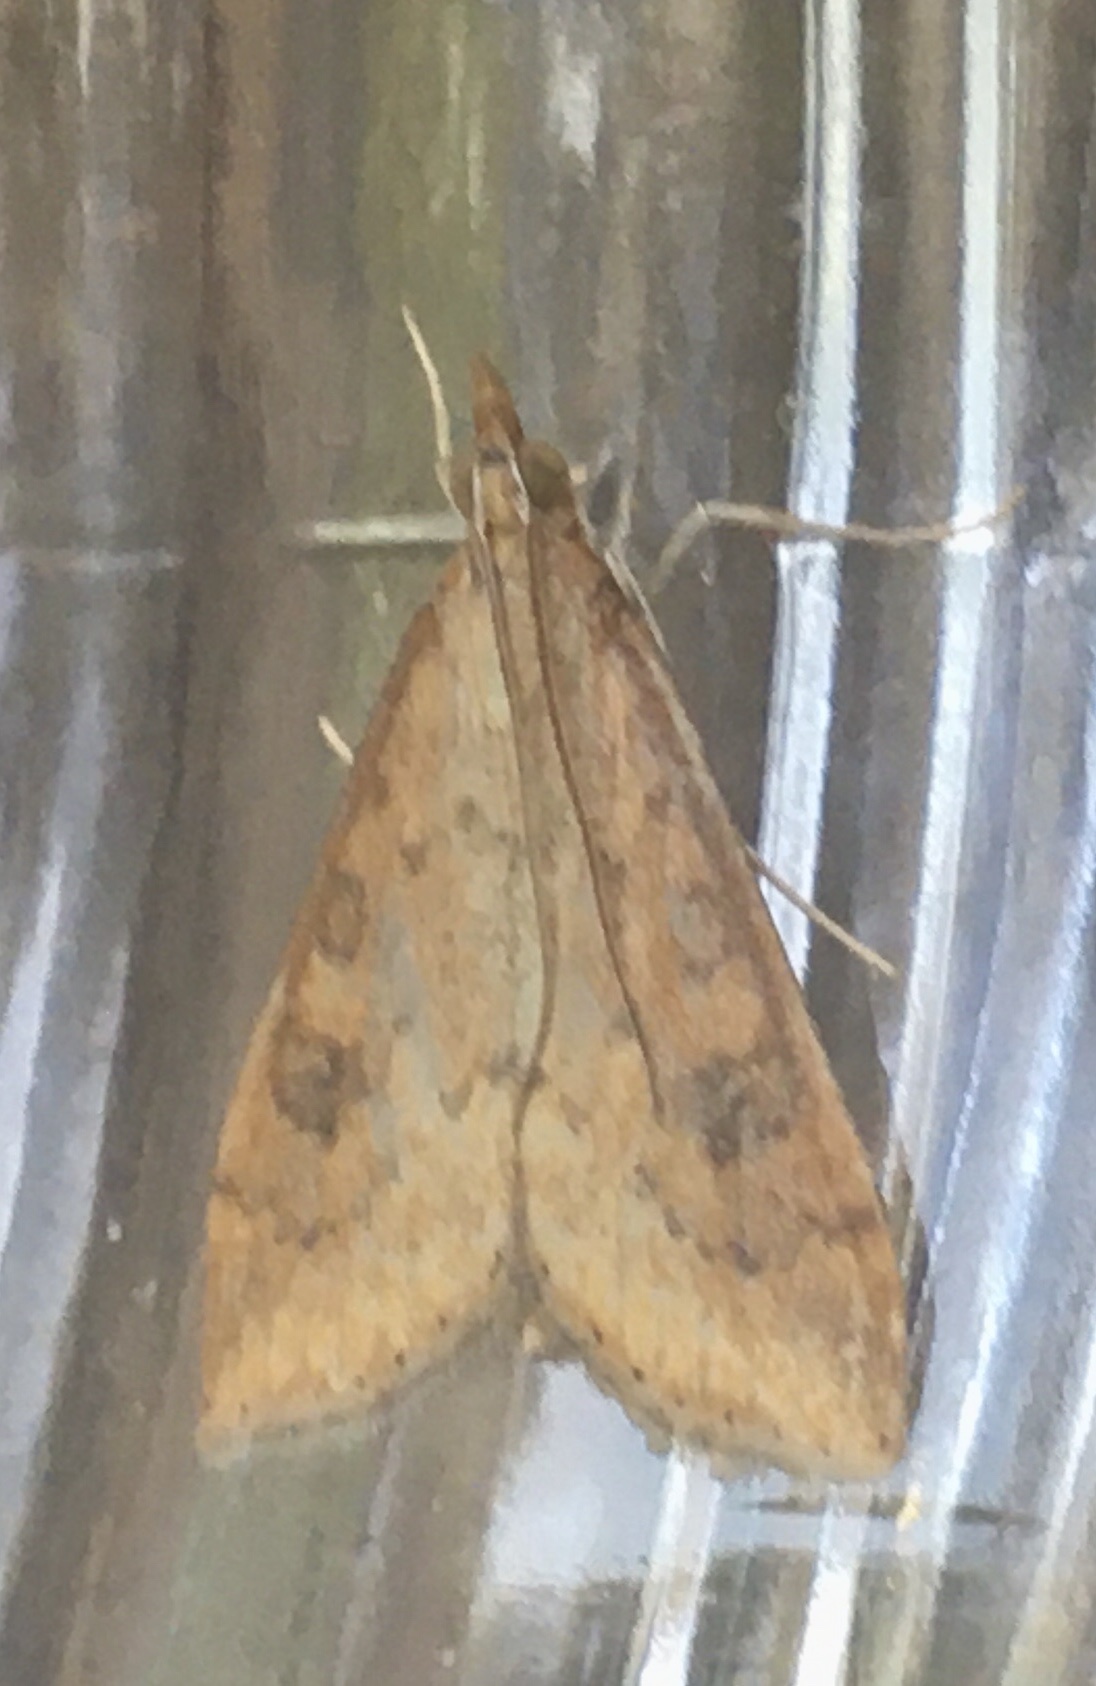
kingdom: Animalia
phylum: Arthropoda
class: Insecta
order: Lepidoptera
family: Crambidae
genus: Udea
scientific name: Udea ferrugalis
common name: Rusty dot
